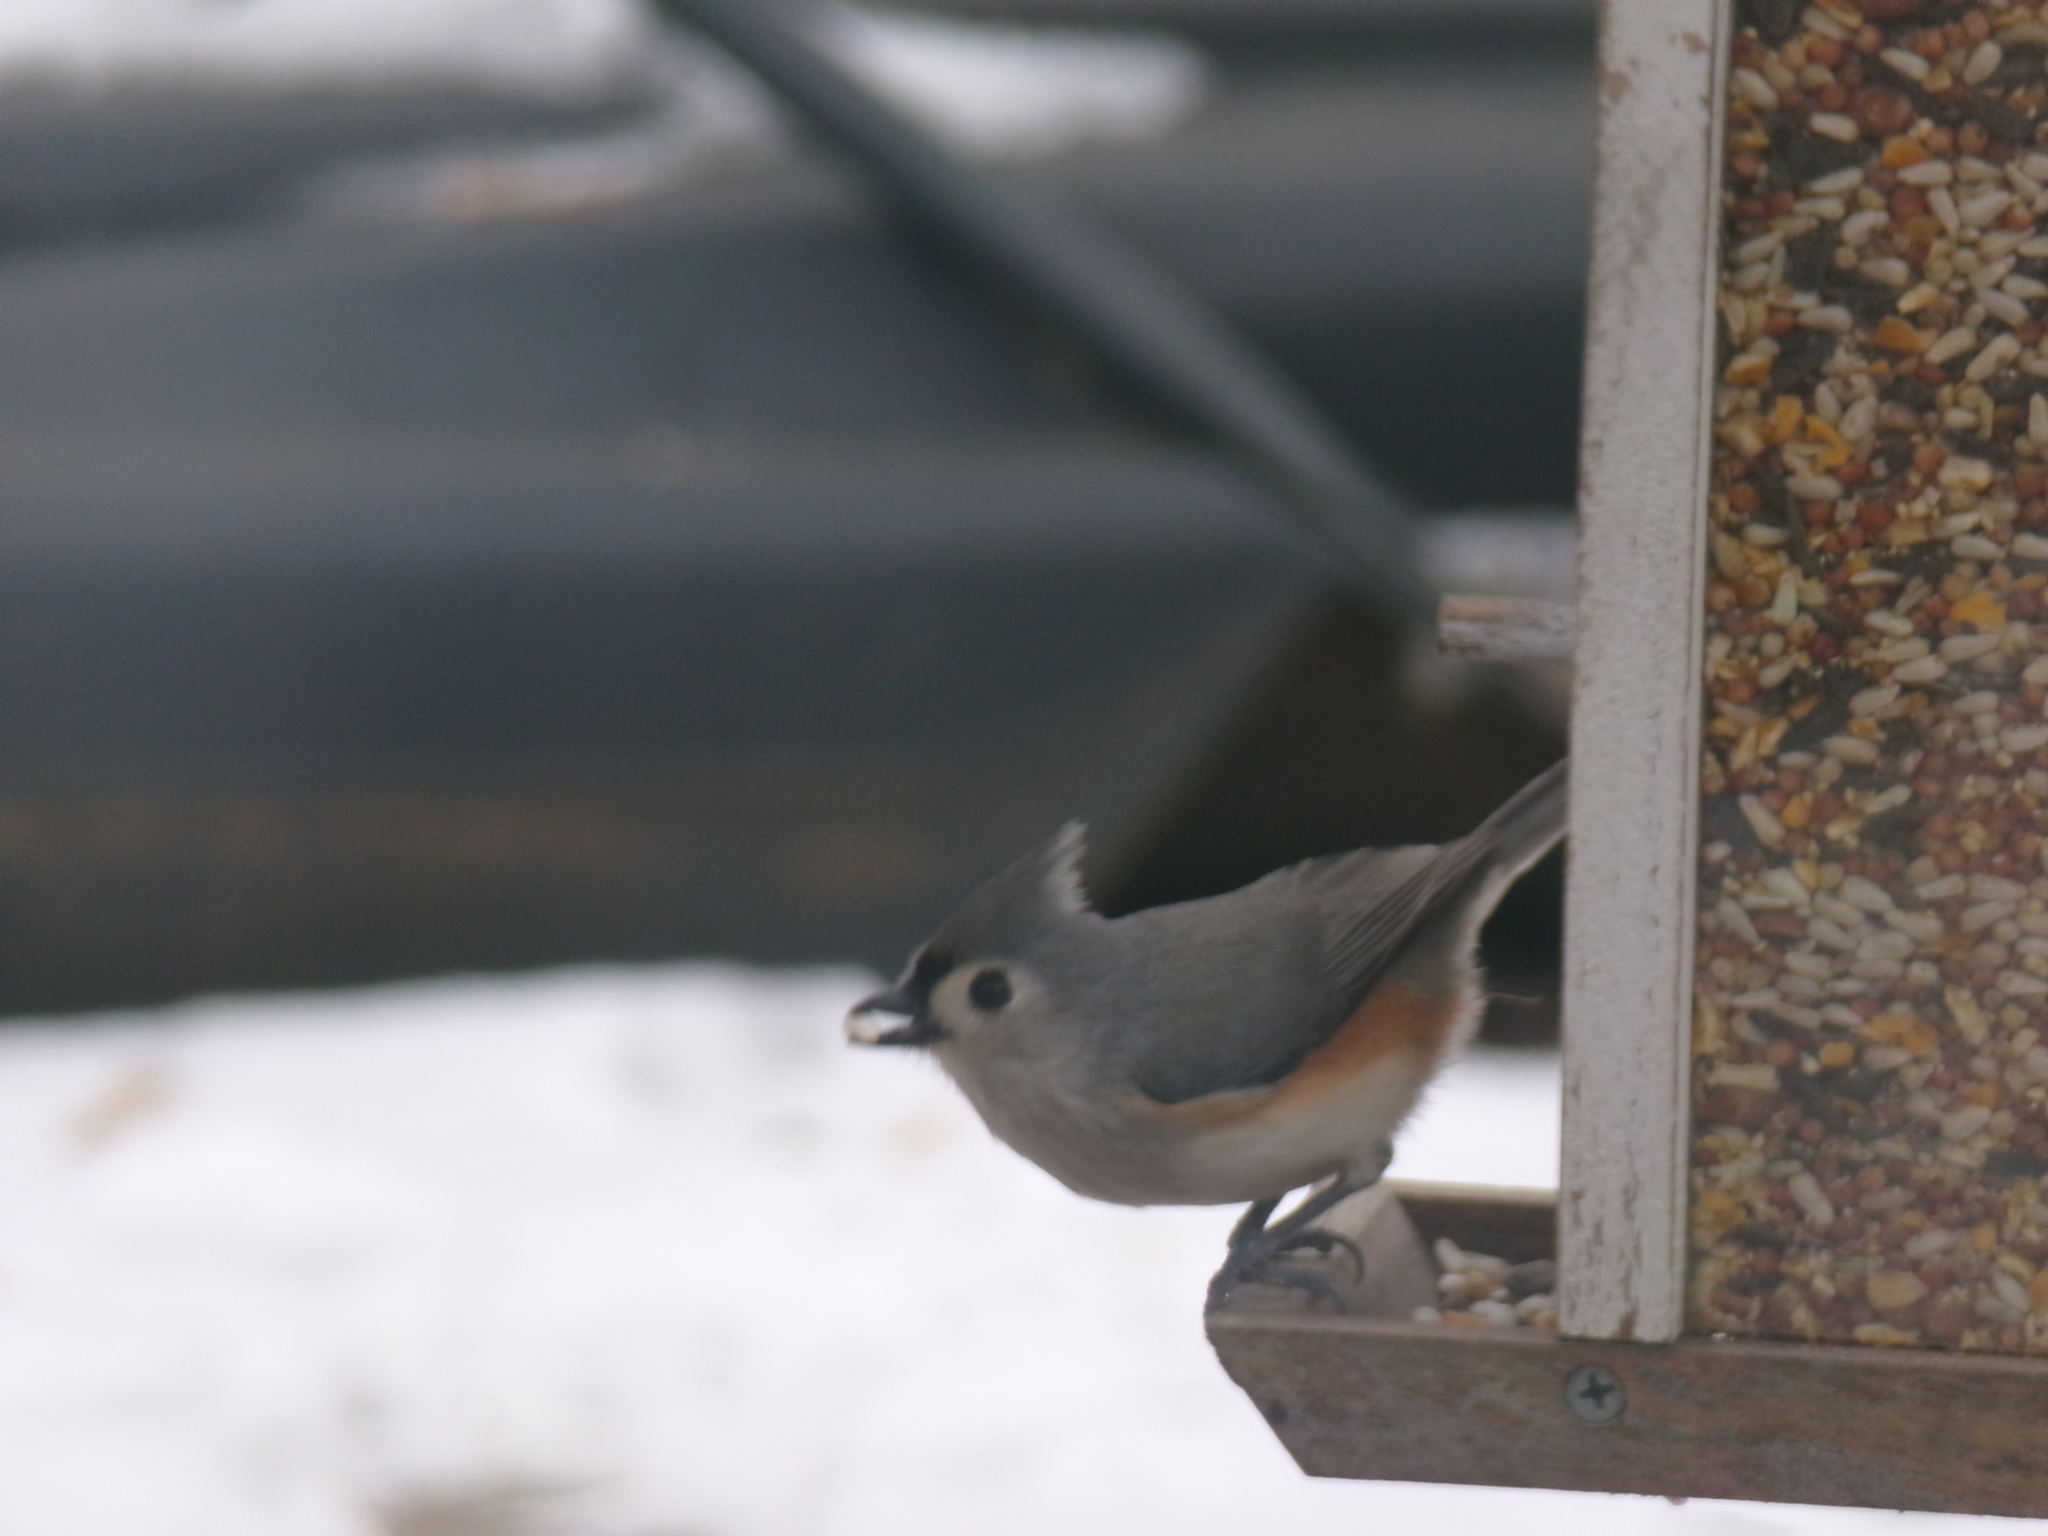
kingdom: Animalia
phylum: Chordata
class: Aves
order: Passeriformes
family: Paridae
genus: Baeolophus
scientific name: Baeolophus bicolor
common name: Tufted titmouse
